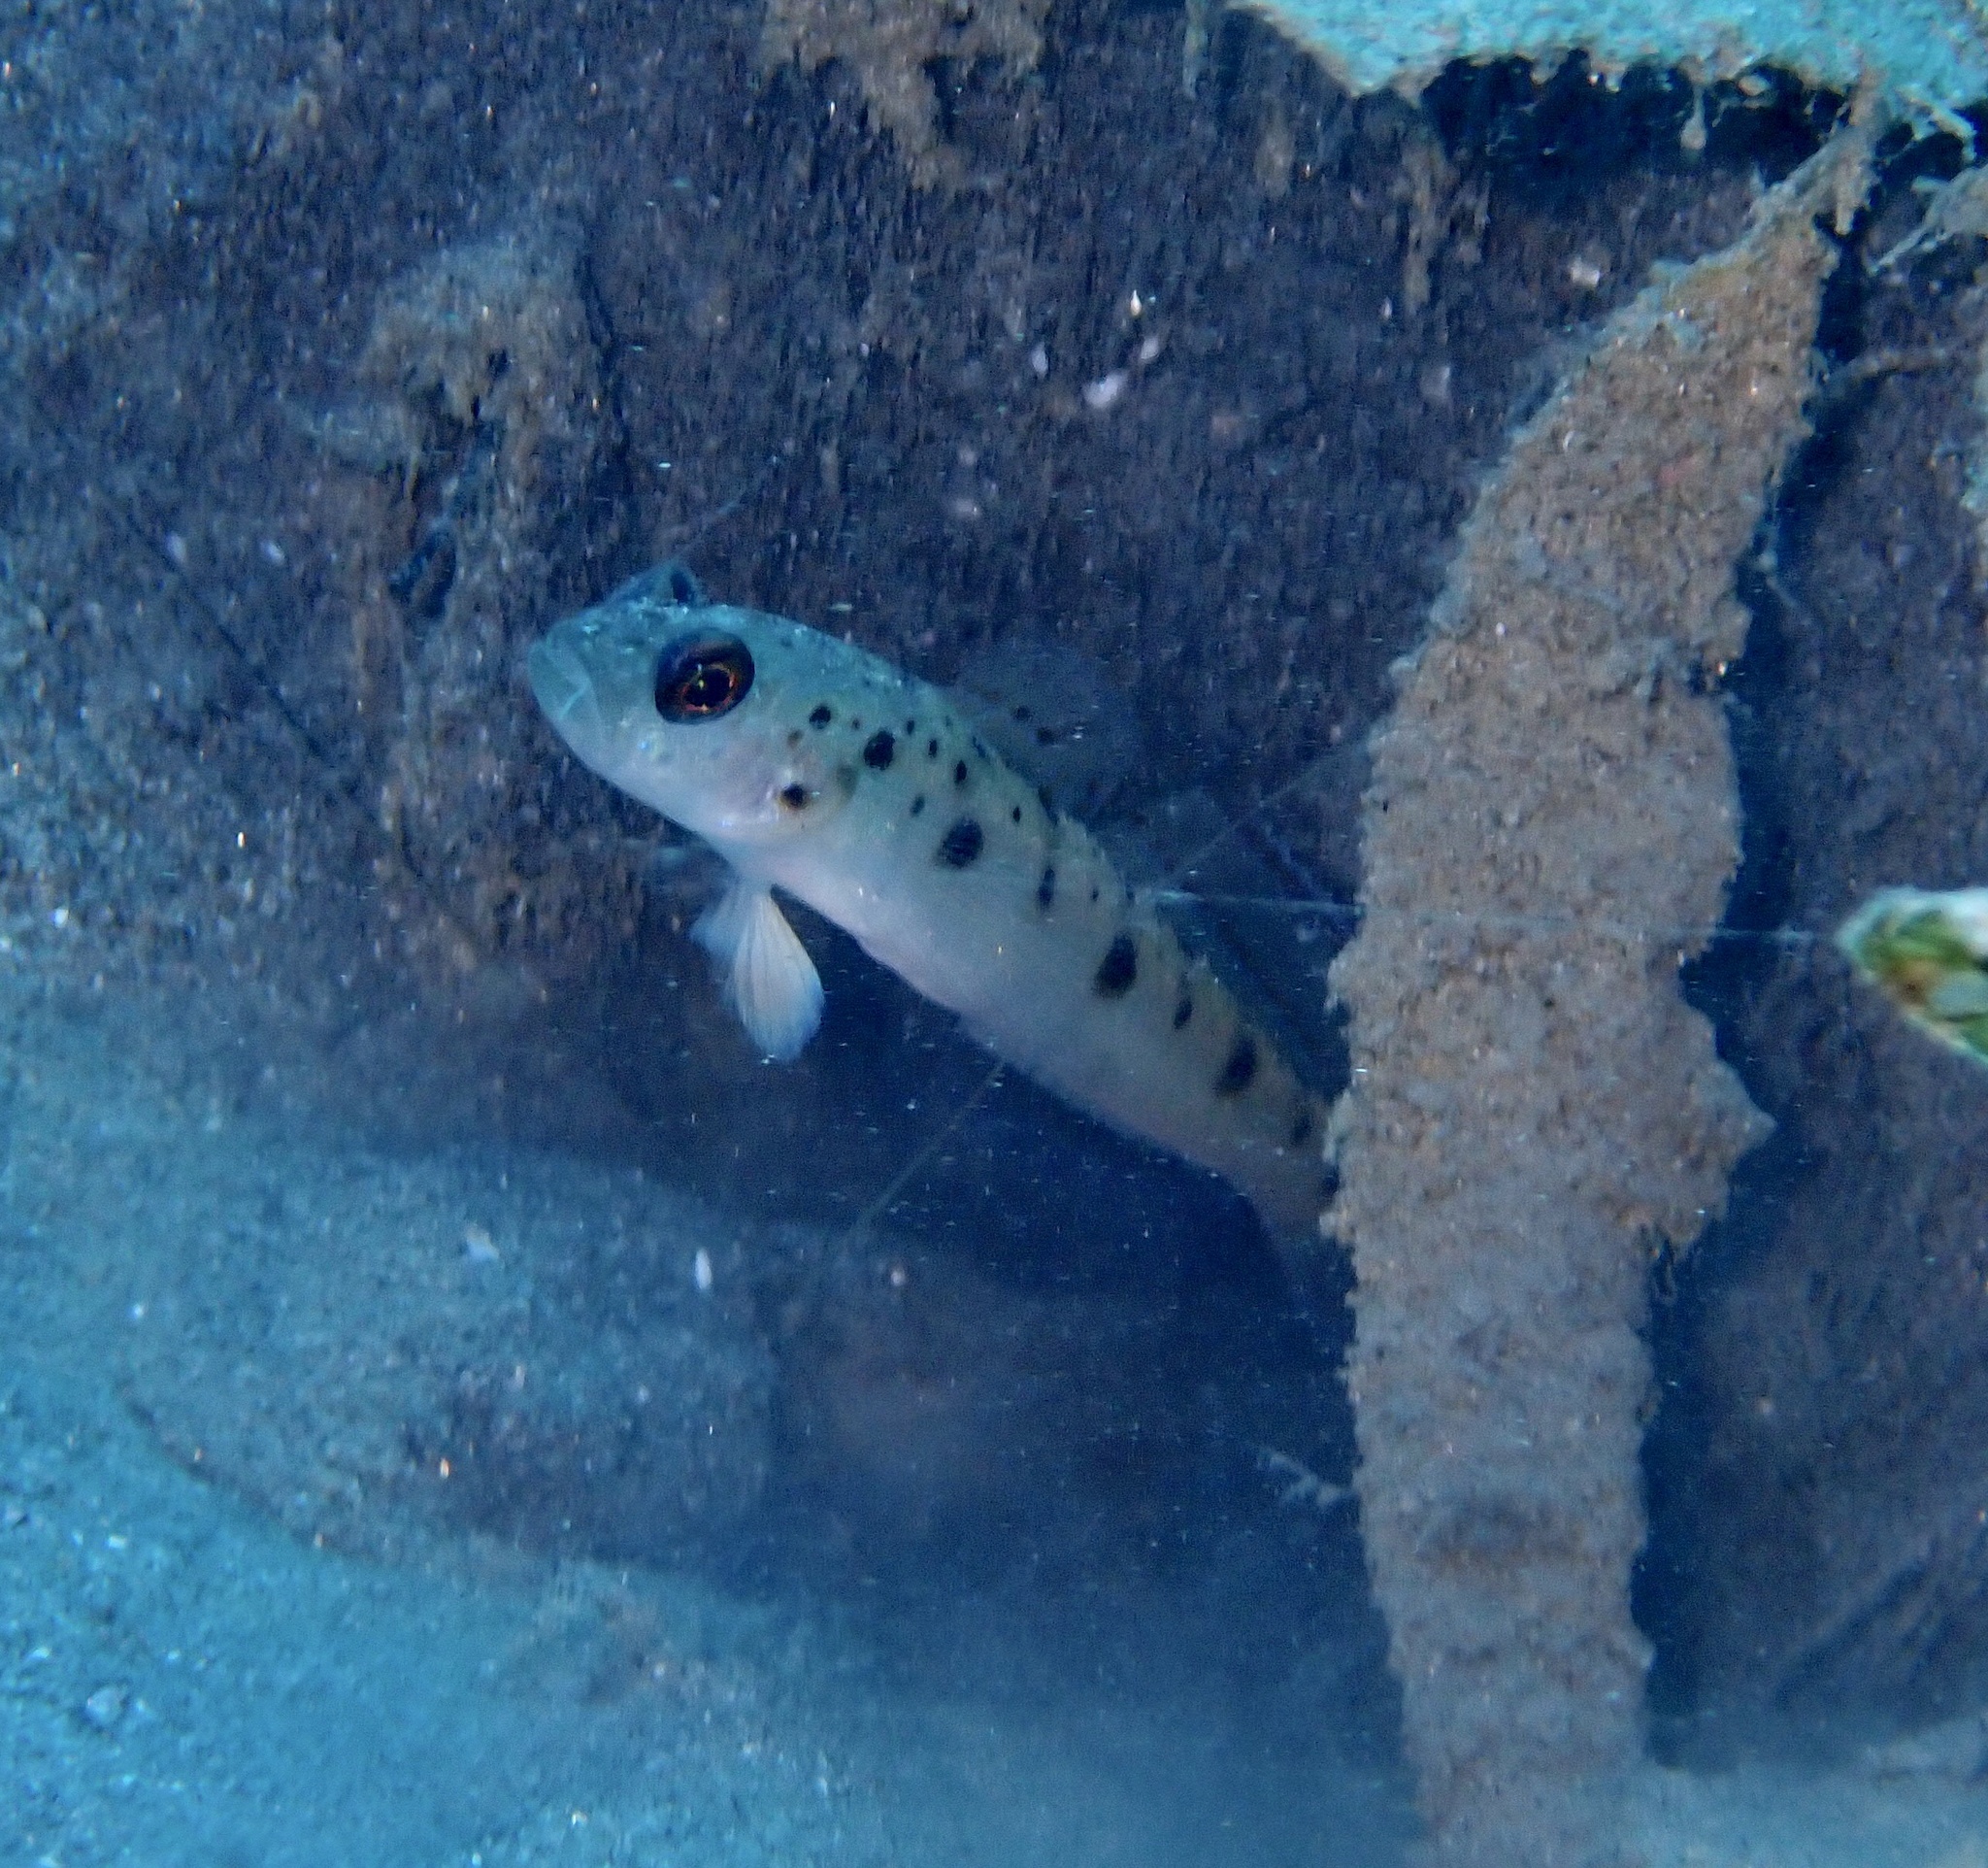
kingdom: Animalia
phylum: Chordata
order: Perciformes
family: Gobiidae
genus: Vanderhorstia
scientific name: Vanderhorstia ambanoro
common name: Ambanoro goby
